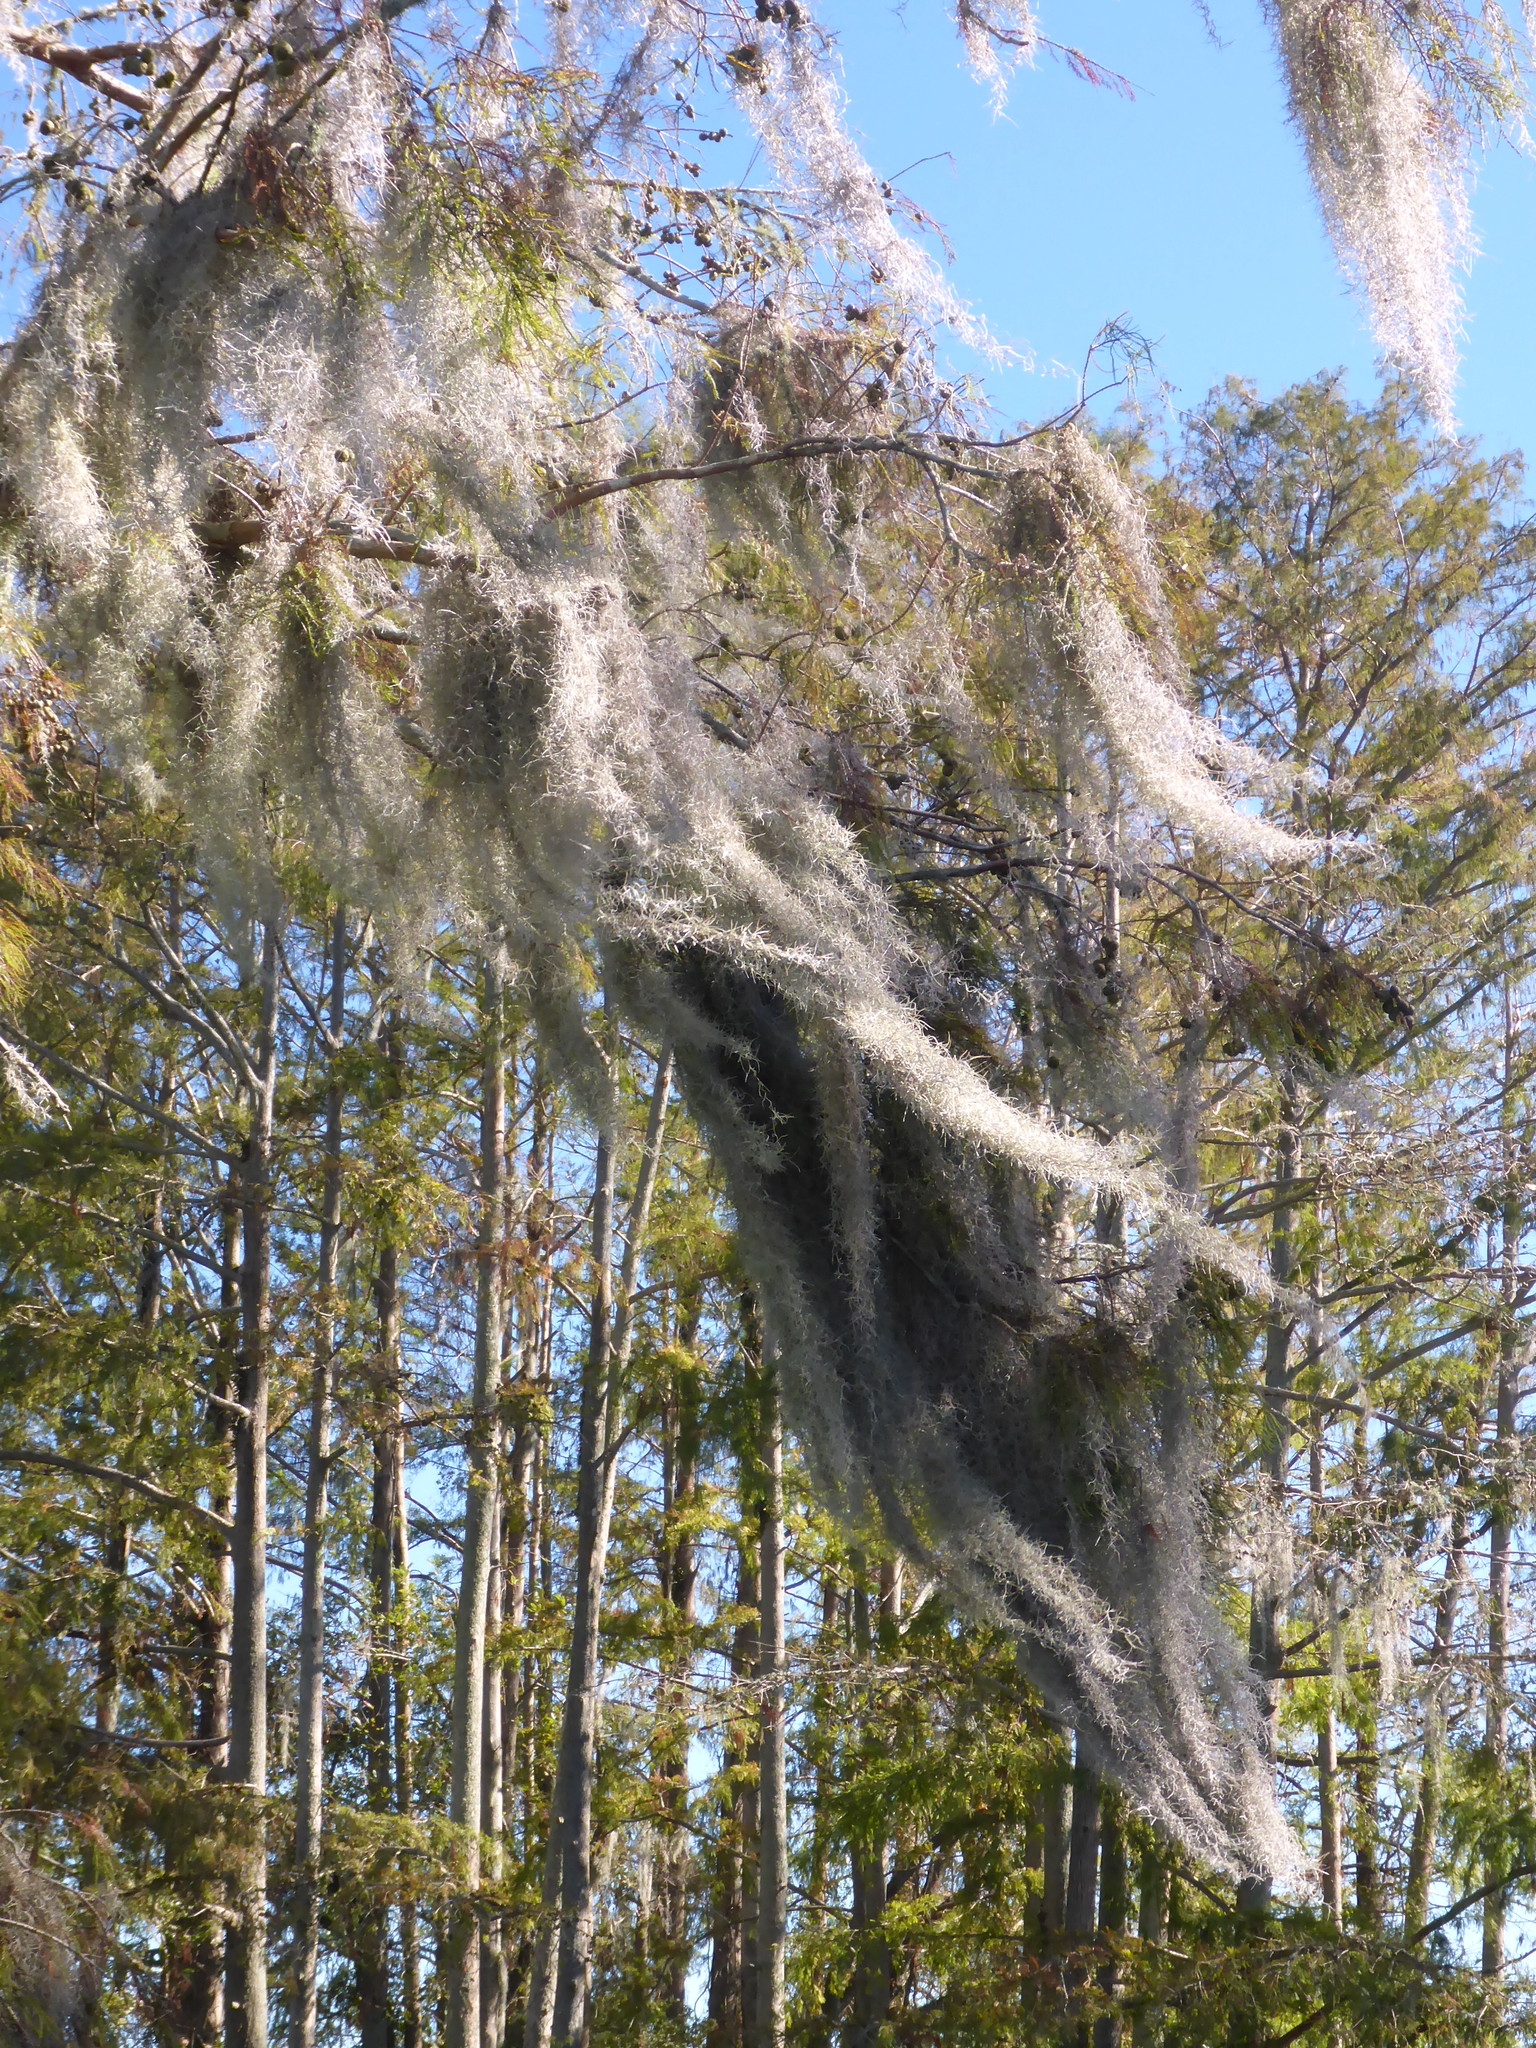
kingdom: Plantae
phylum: Tracheophyta
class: Liliopsida
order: Poales
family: Bromeliaceae
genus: Tillandsia
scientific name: Tillandsia usneoides
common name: Spanish moss
